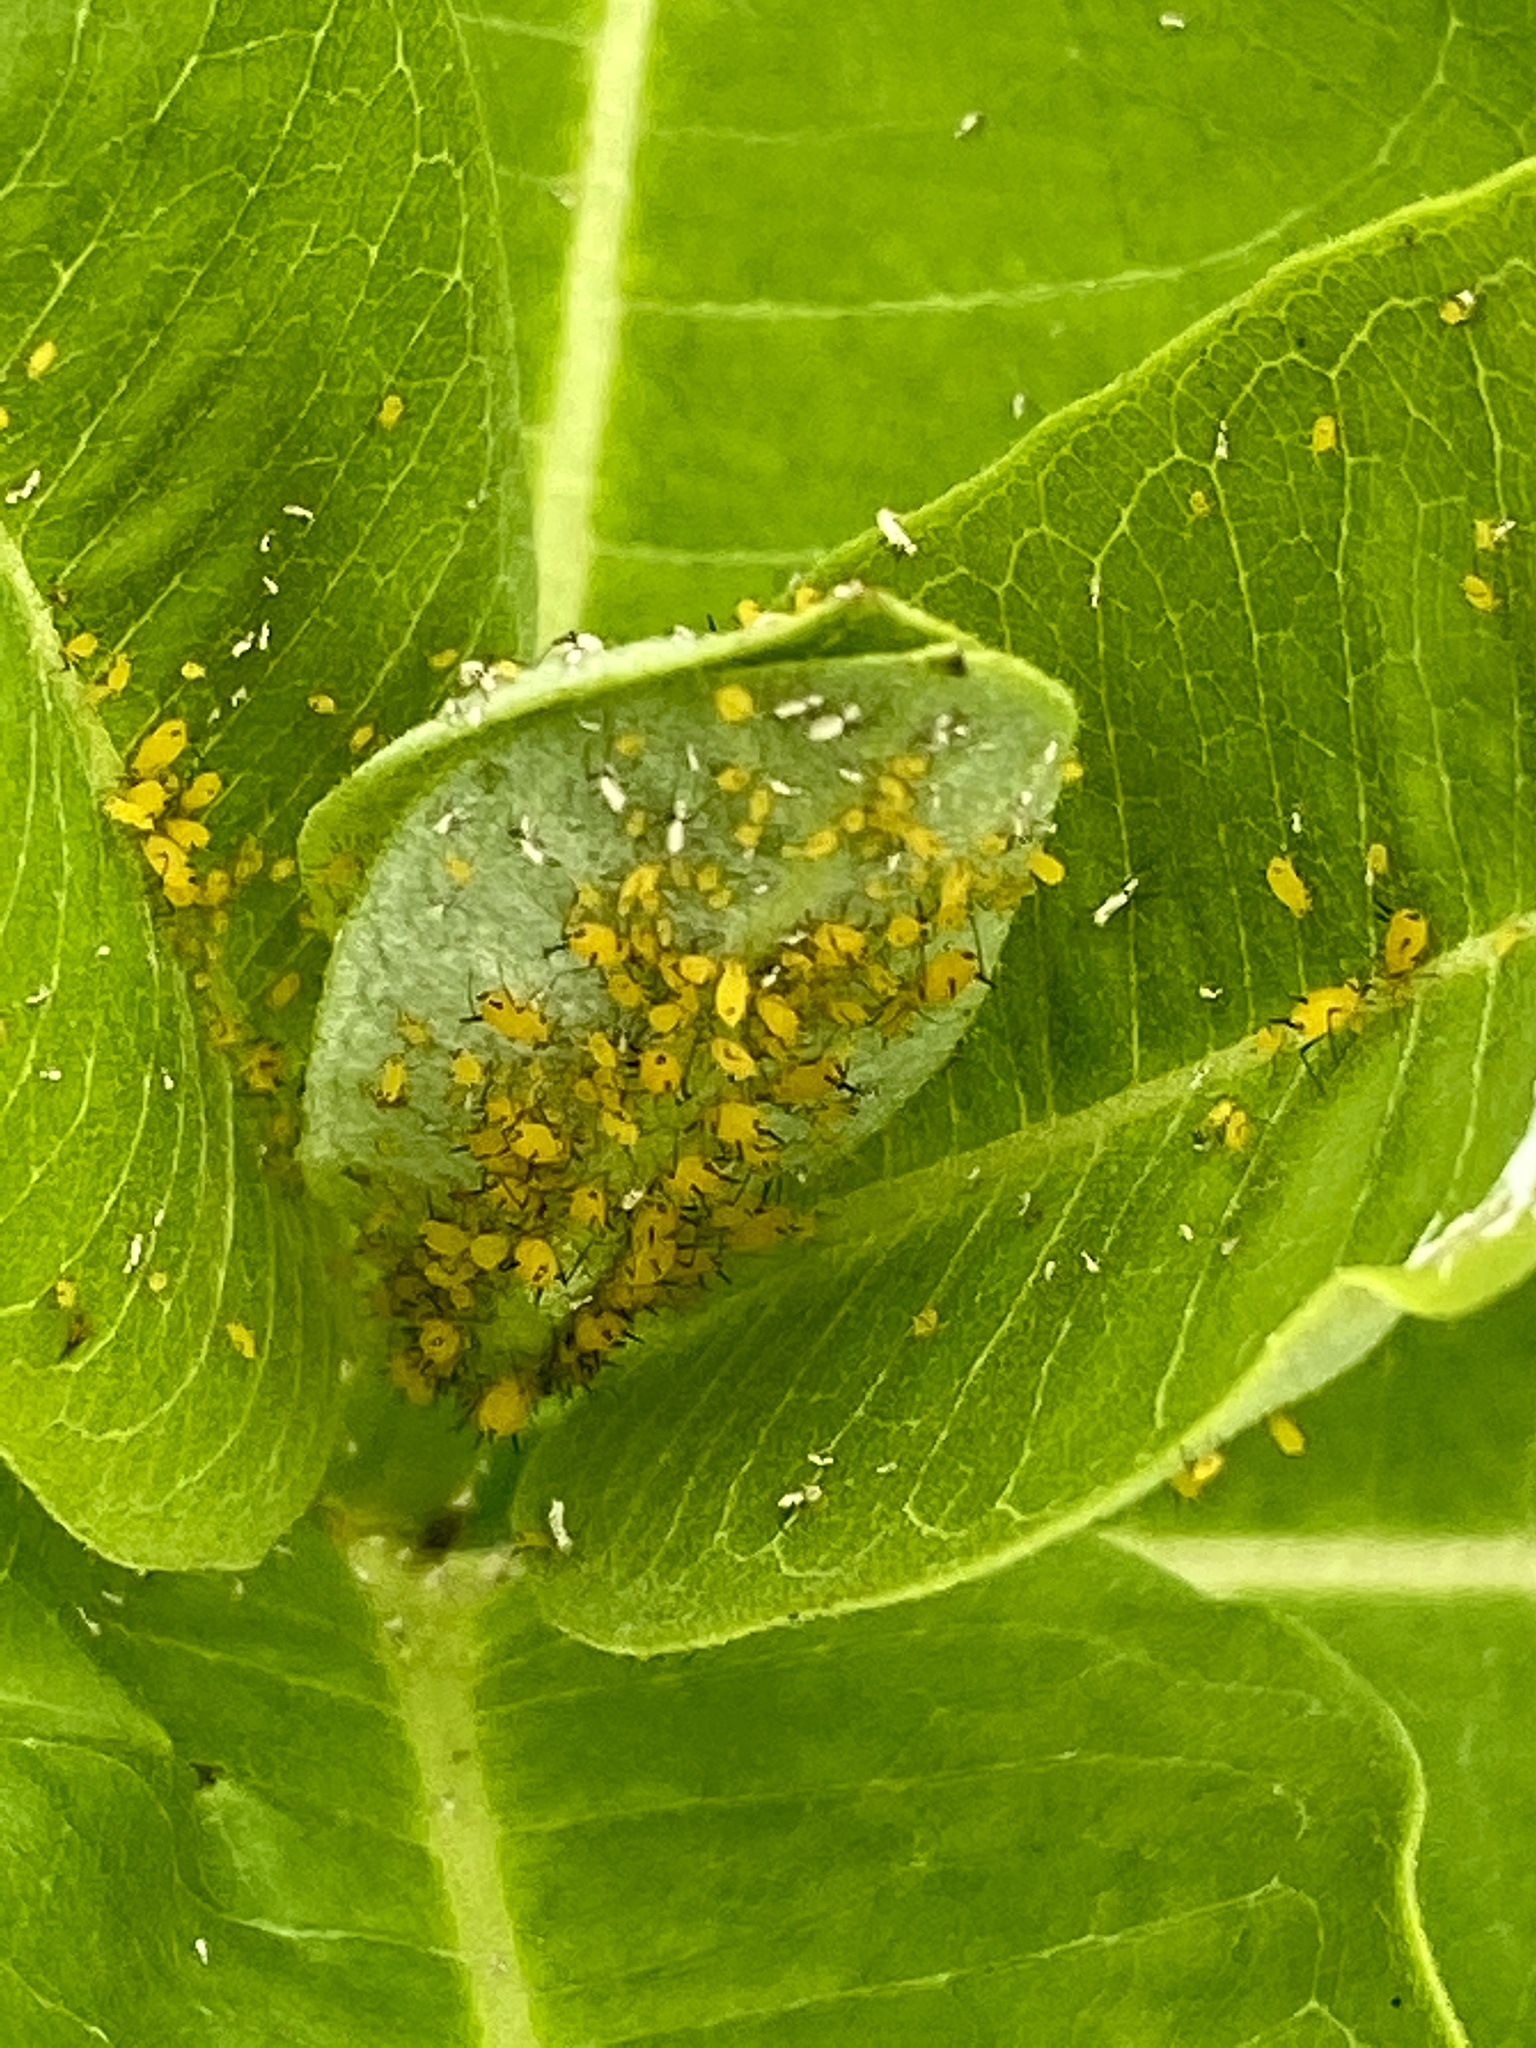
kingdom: Animalia
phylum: Arthropoda
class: Insecta
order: Hemiptera
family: Aphididae
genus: Aphis
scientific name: Aphis nerii
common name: Oleander aphid
